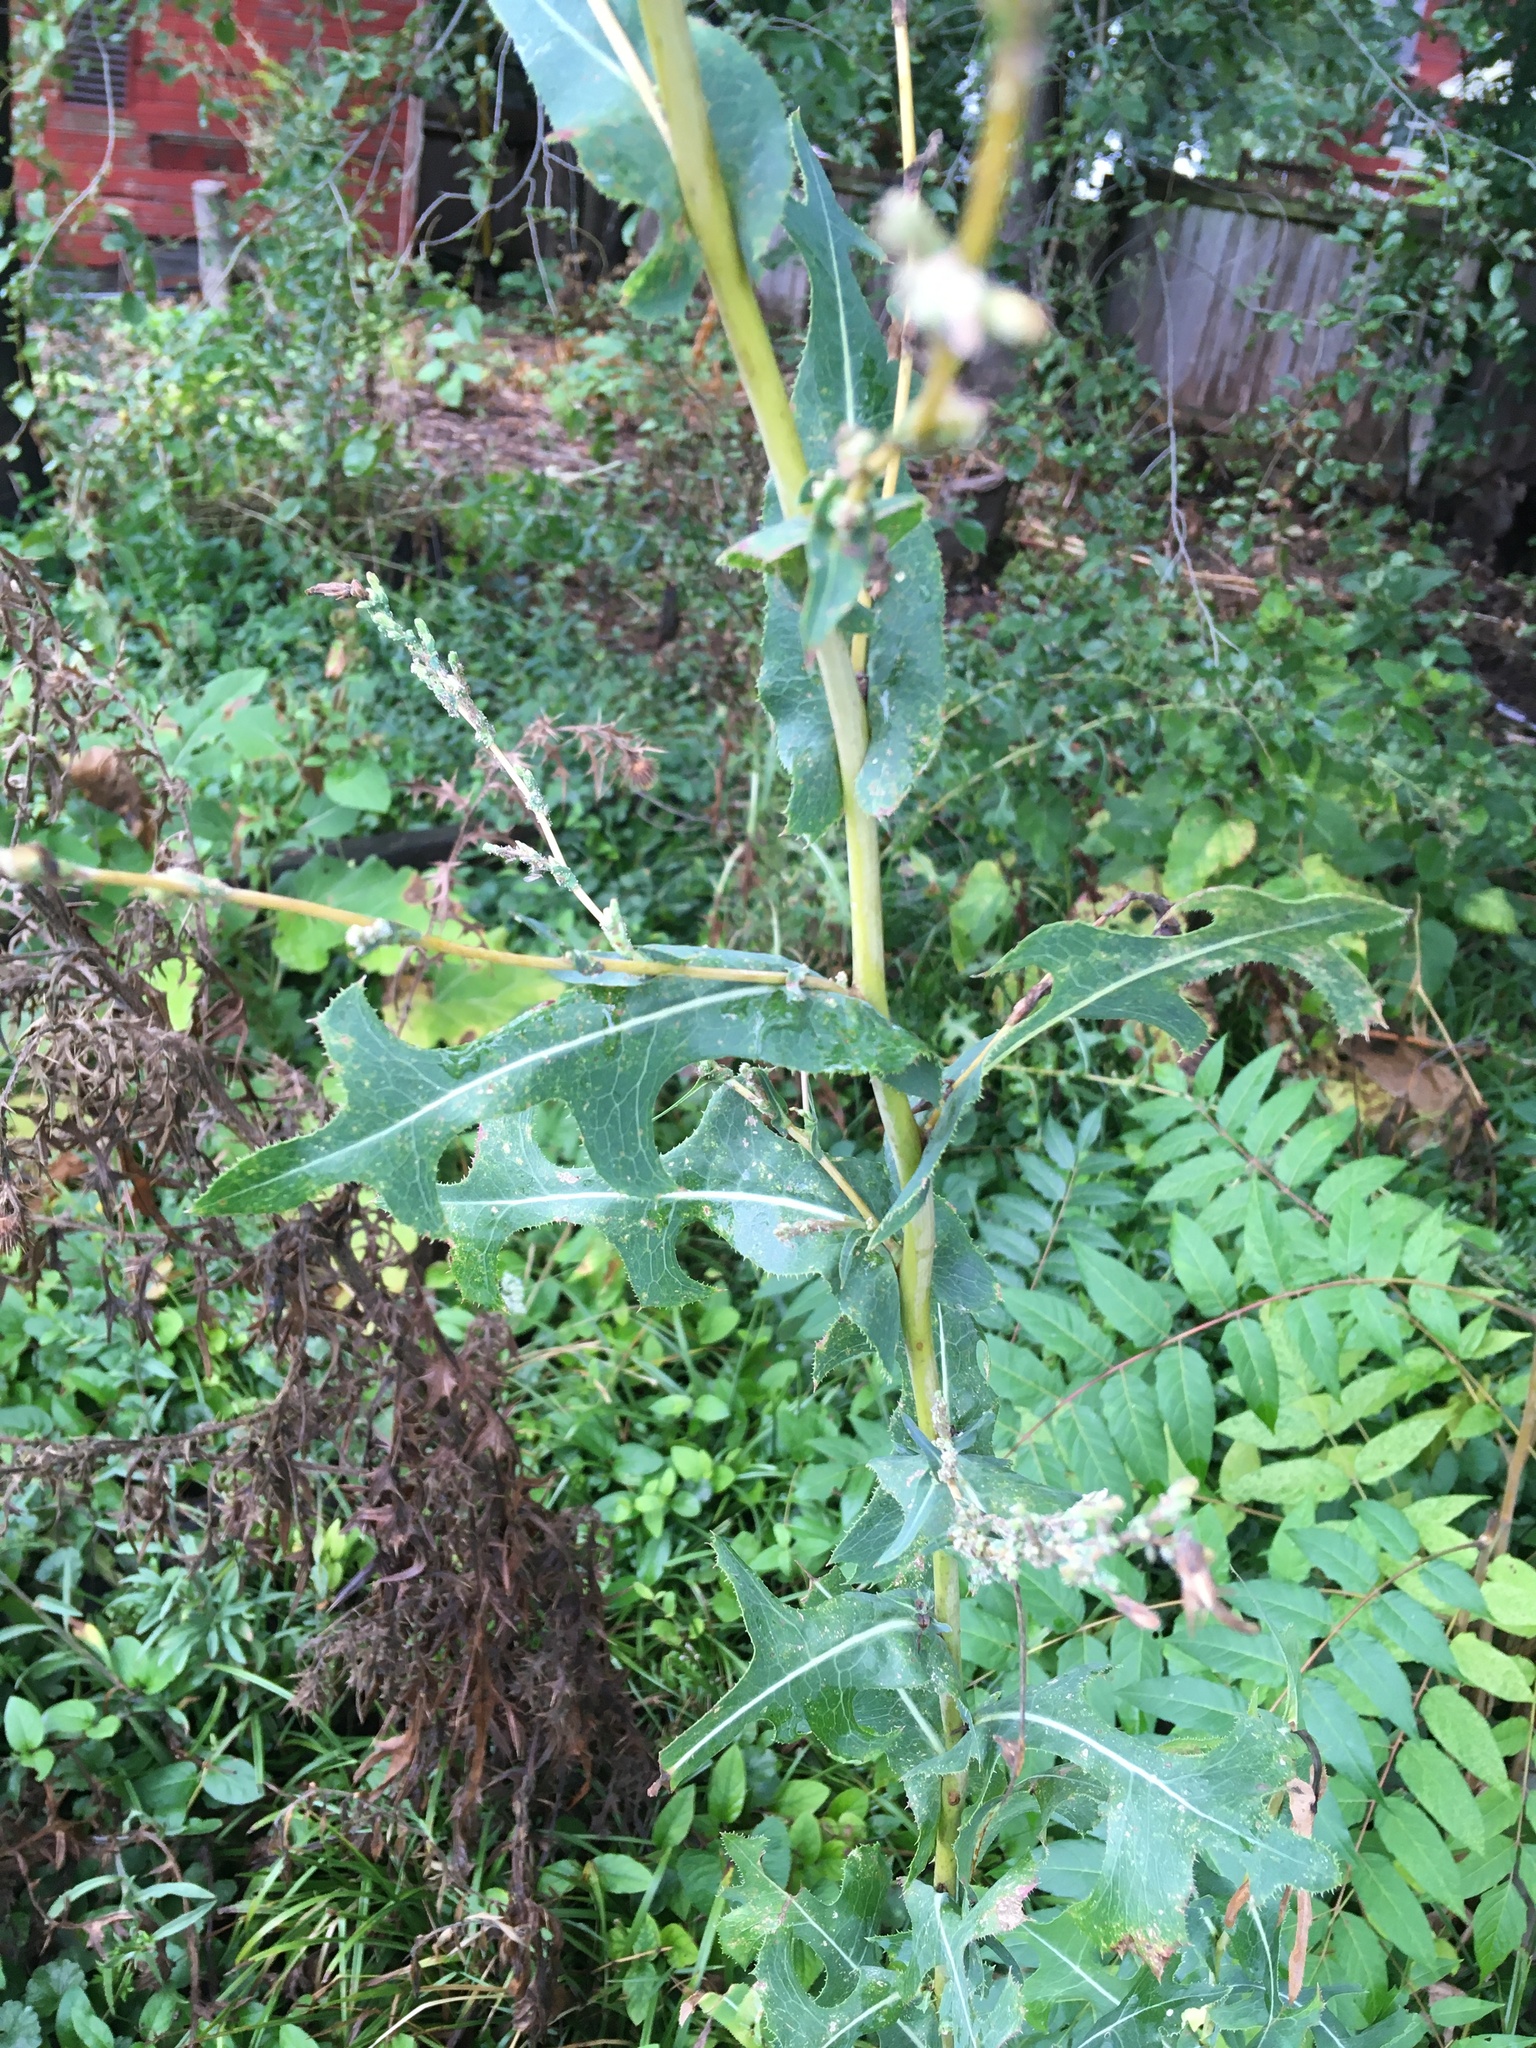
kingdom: Plantae
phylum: Tracheophyta
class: Magnoliopsida
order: Asterales
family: Asteraceae
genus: Lactuca
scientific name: Lactuca serriola
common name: Prickly lettuce
